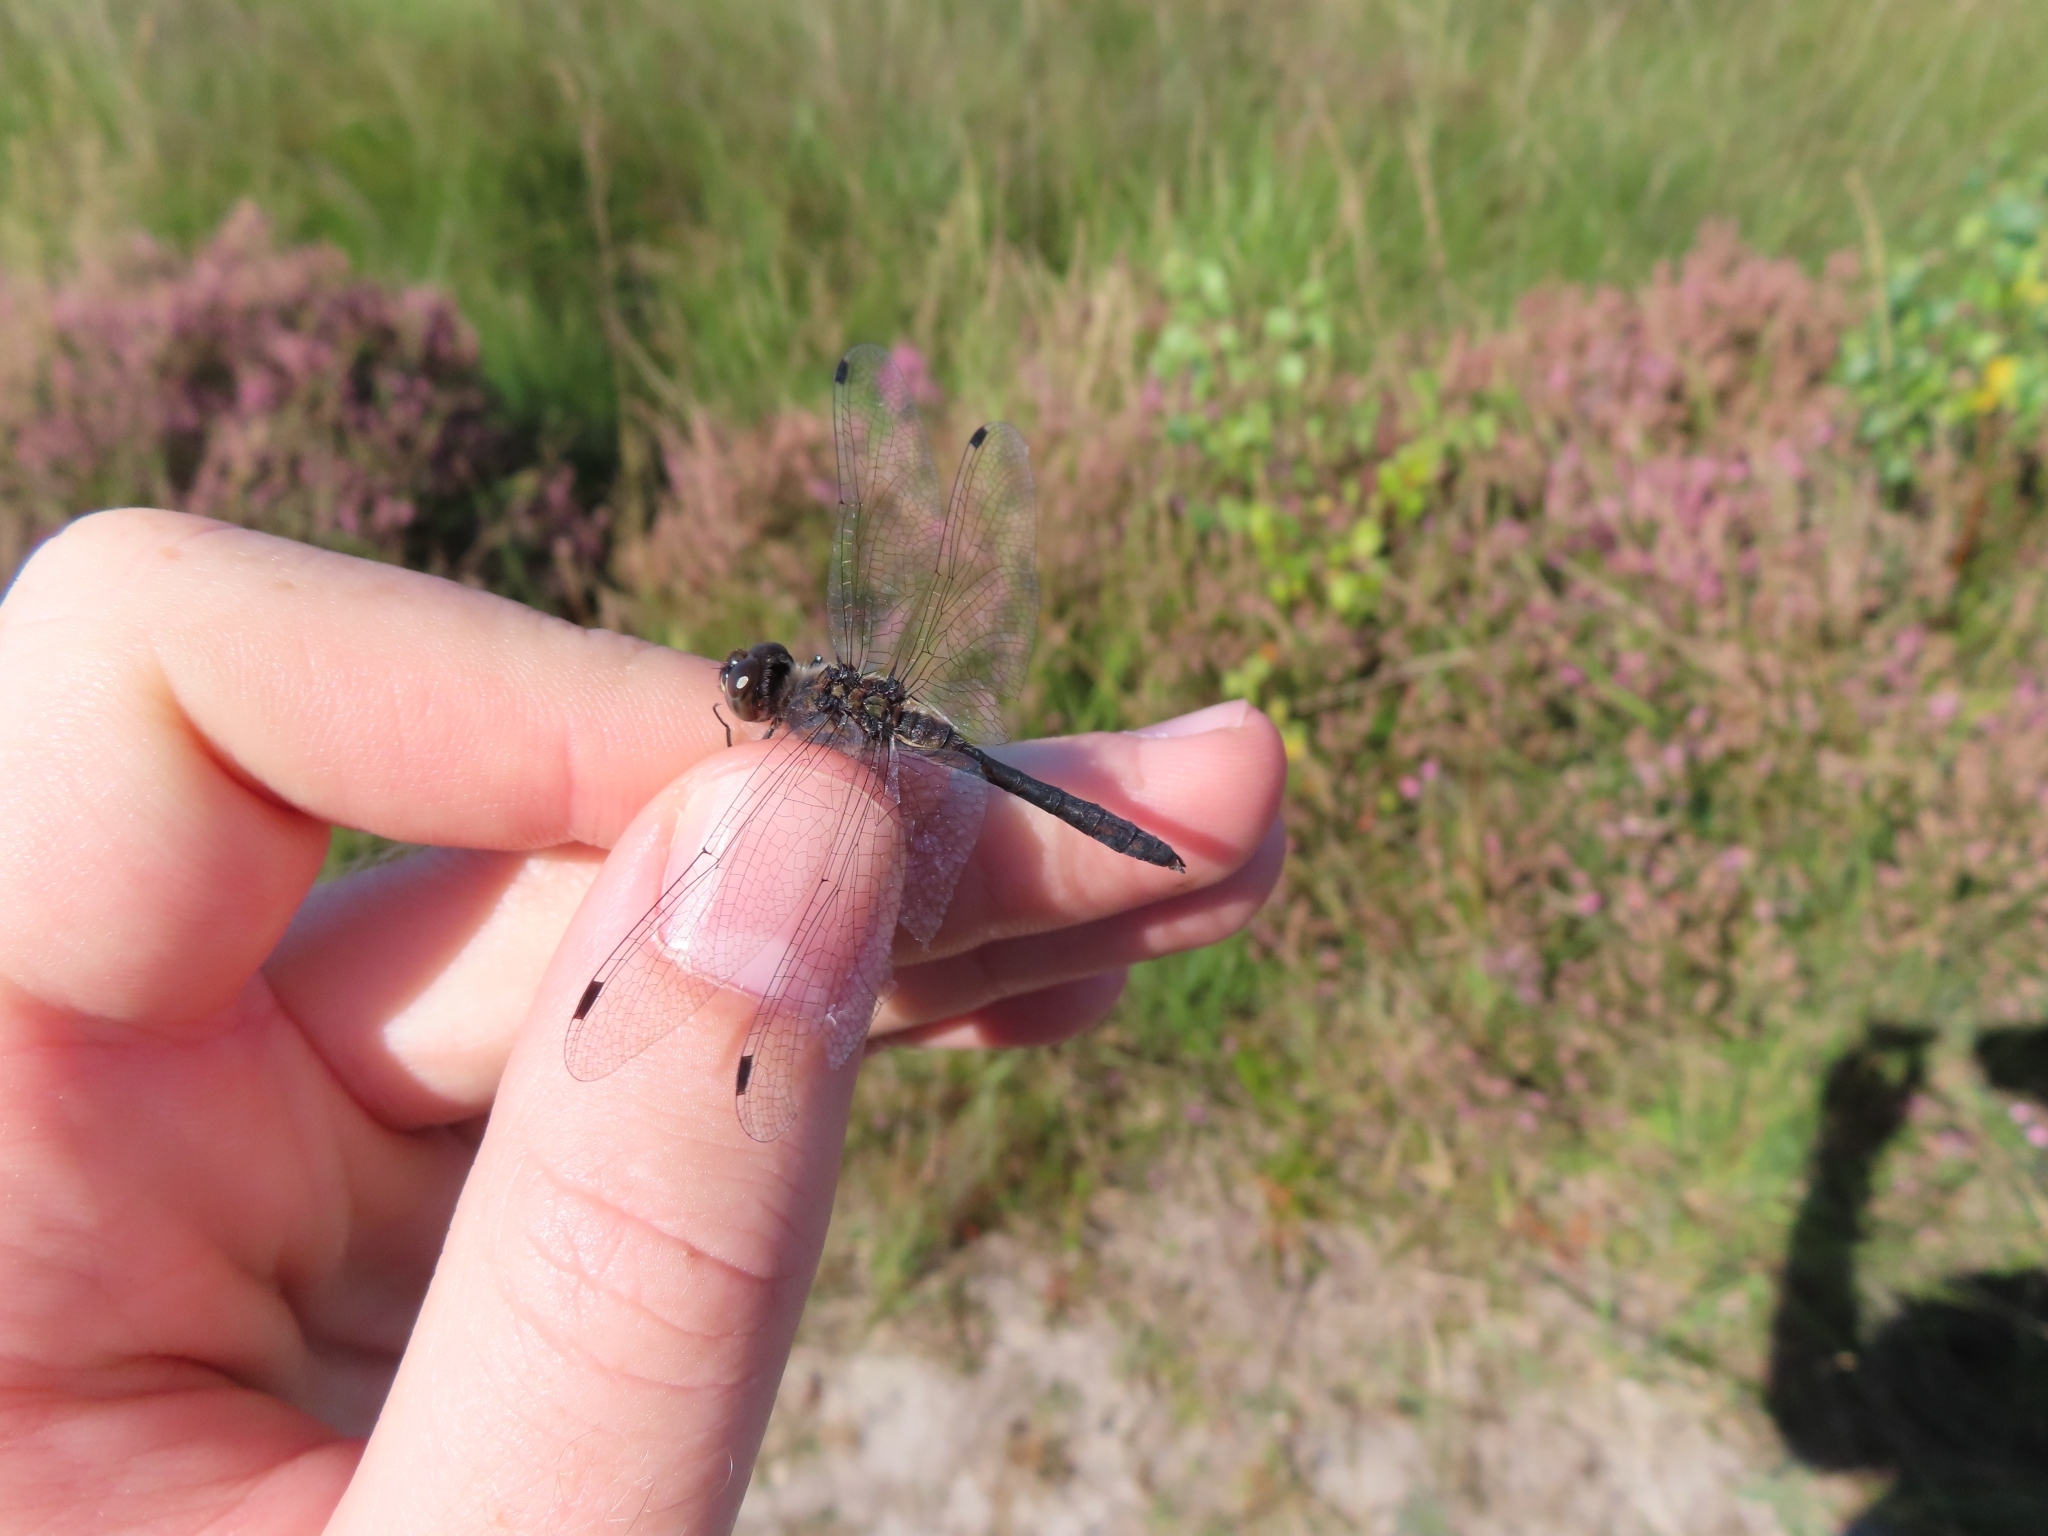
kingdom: Animalia
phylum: Arthropoda
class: Insecta
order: Odonata
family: Libellulidae
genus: Sympetrum
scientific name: Sympetrum danae
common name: Black darter
